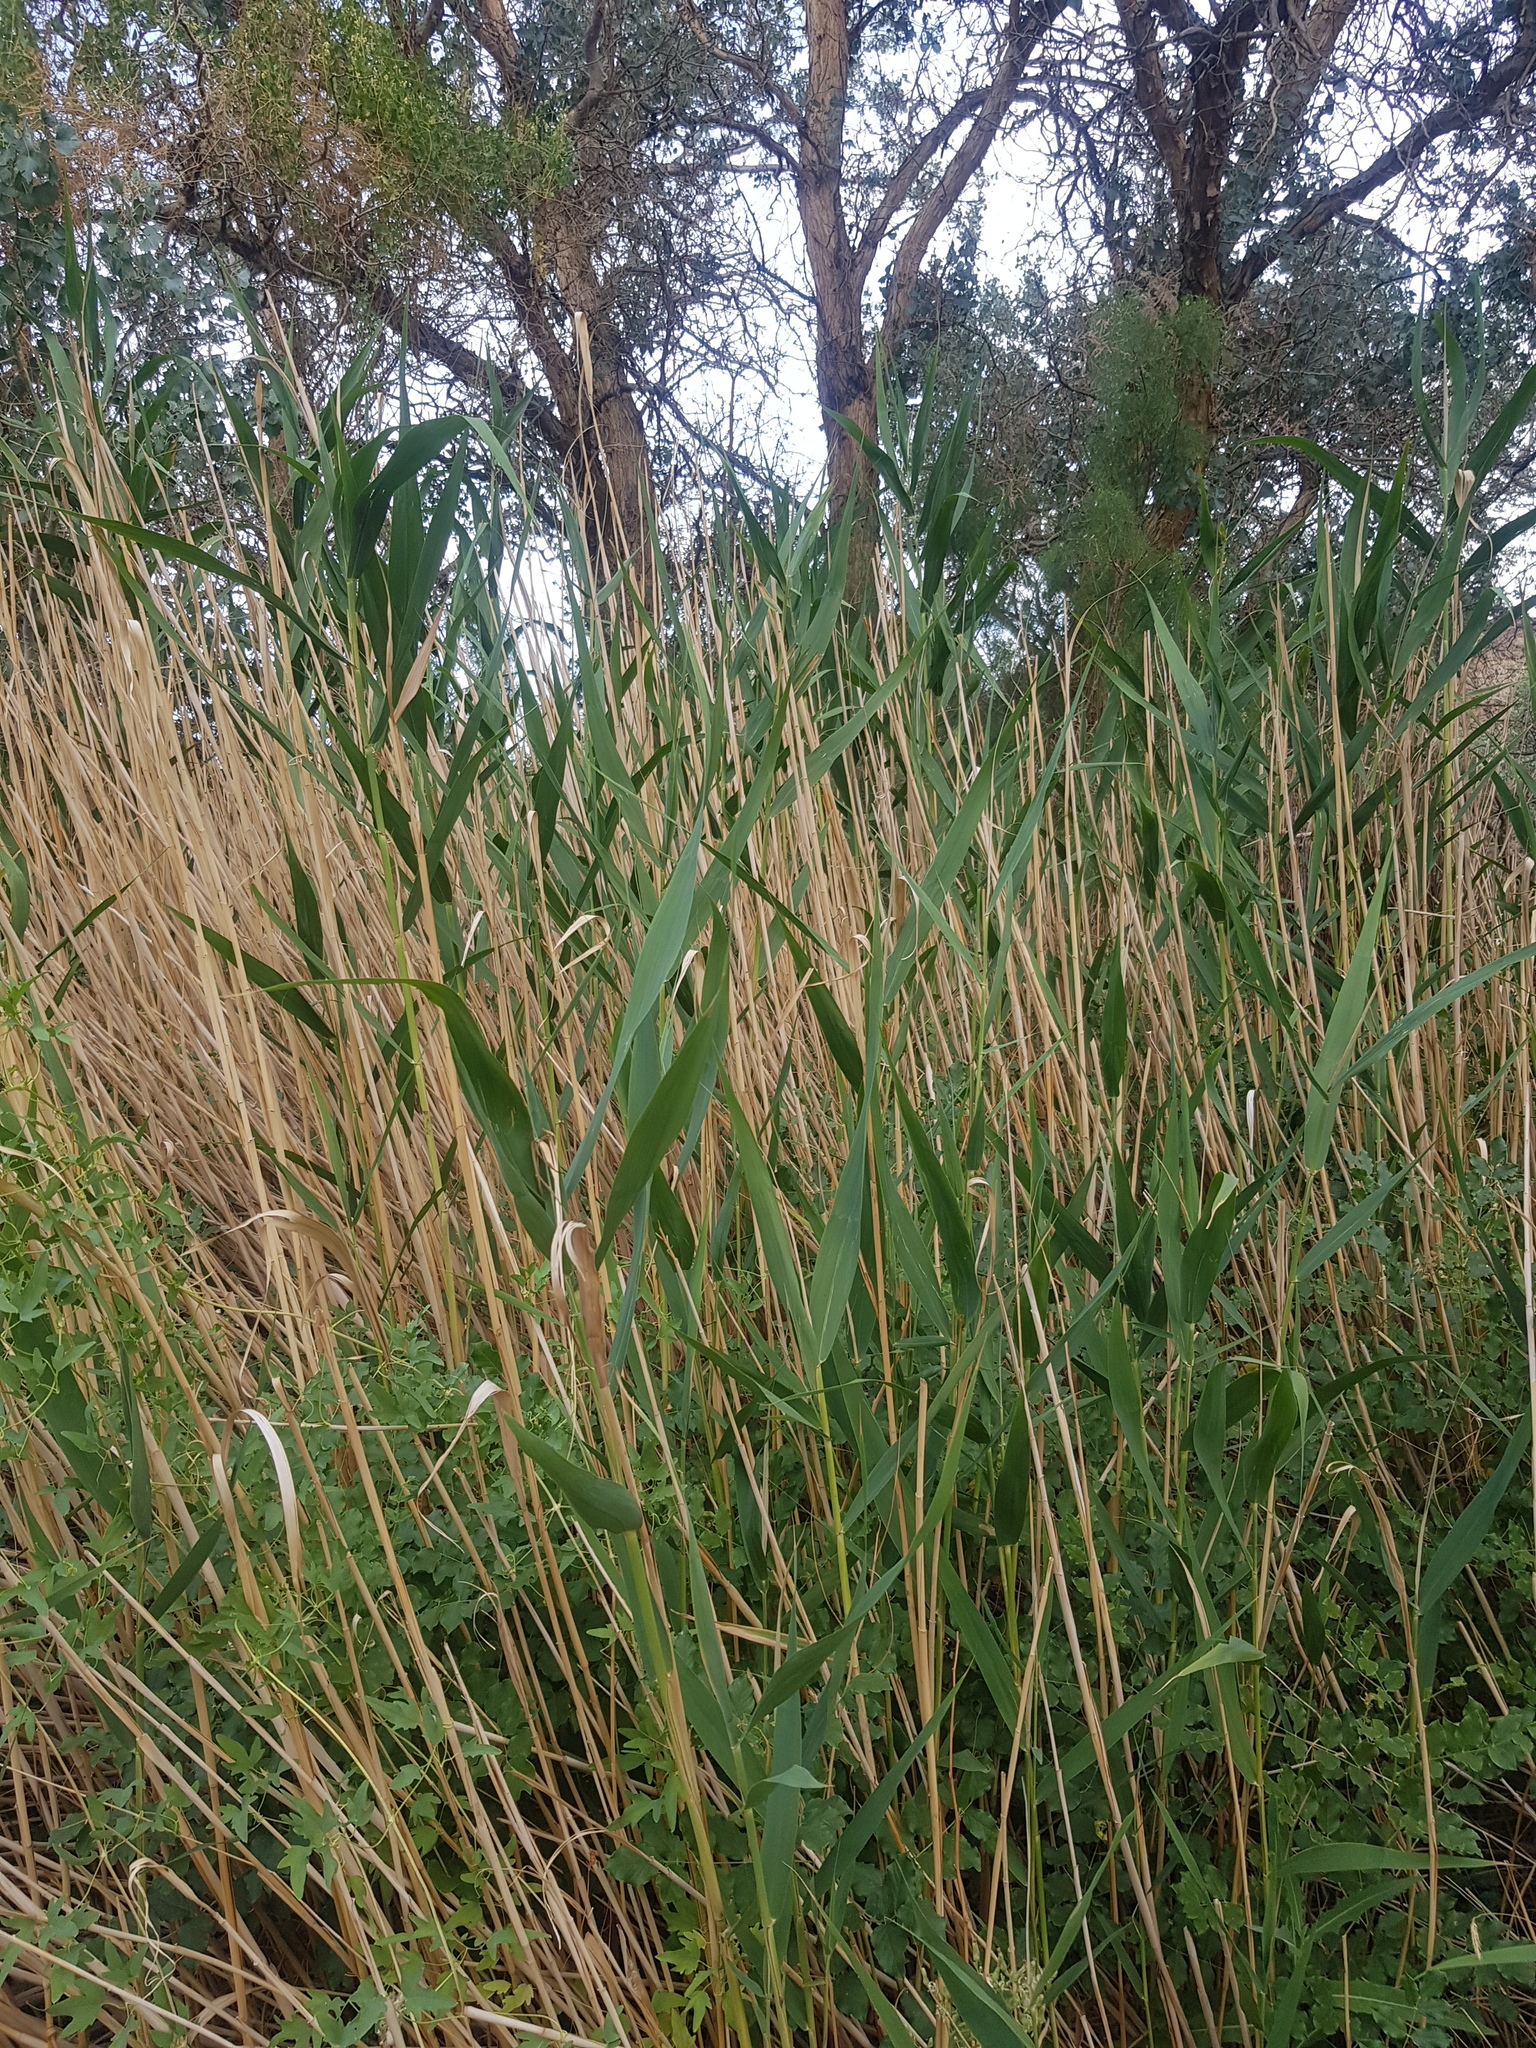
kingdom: Plantae
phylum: Tracheophyta
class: Liliopsida
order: Poales
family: Poaceae
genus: Phragmites
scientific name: Phragmites australis
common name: Common reed
